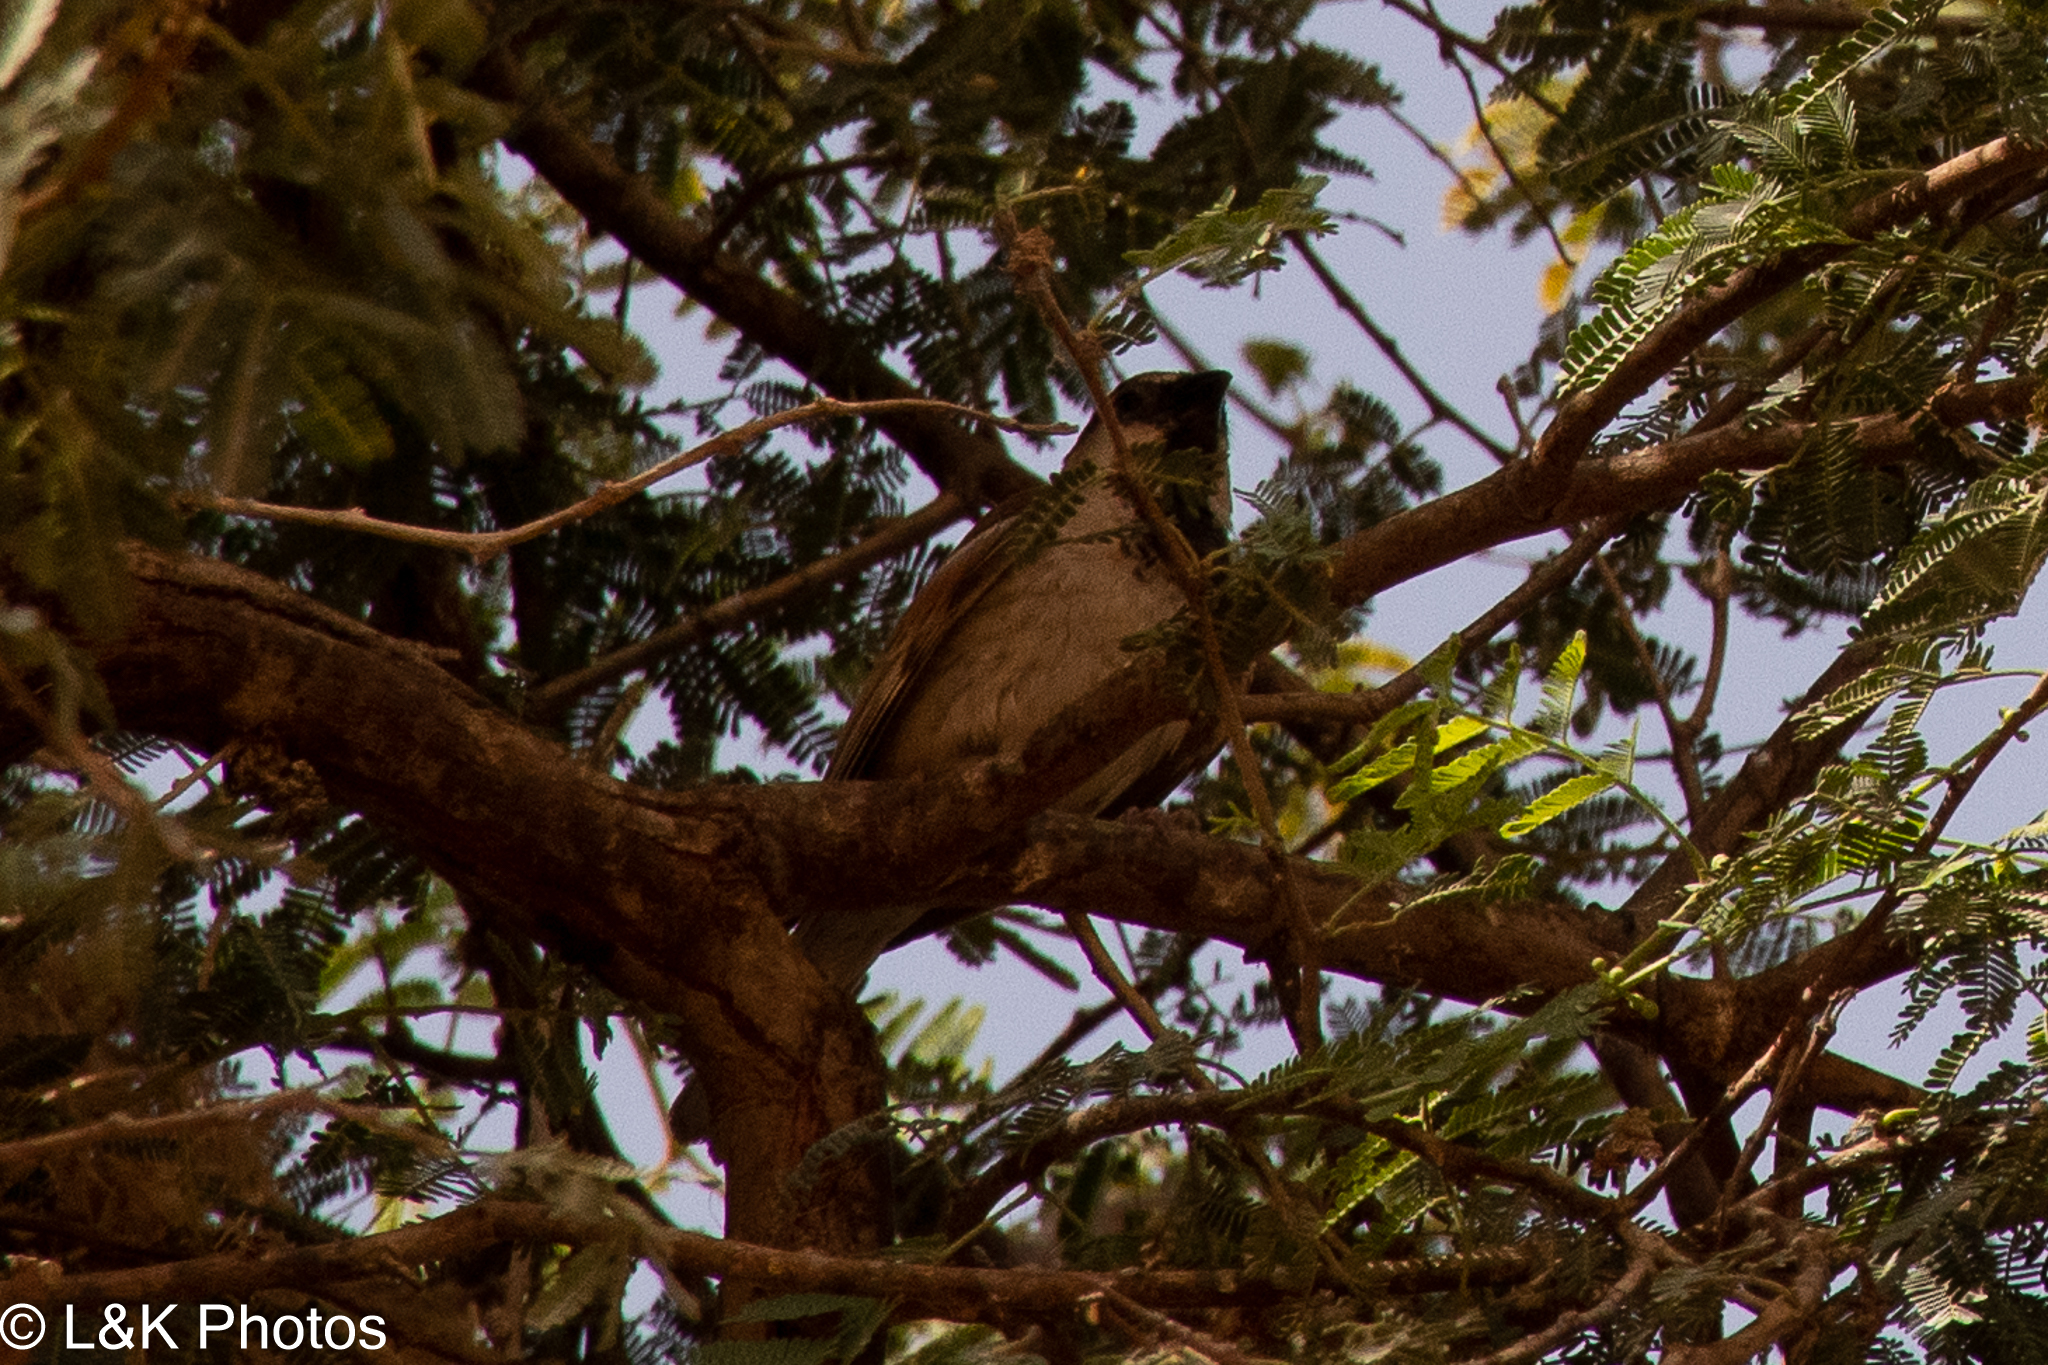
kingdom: Animalia
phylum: Chordata
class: Aves
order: Passeriformes
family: Passeridae
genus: Passer
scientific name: Passer domesticus
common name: House sparrow
